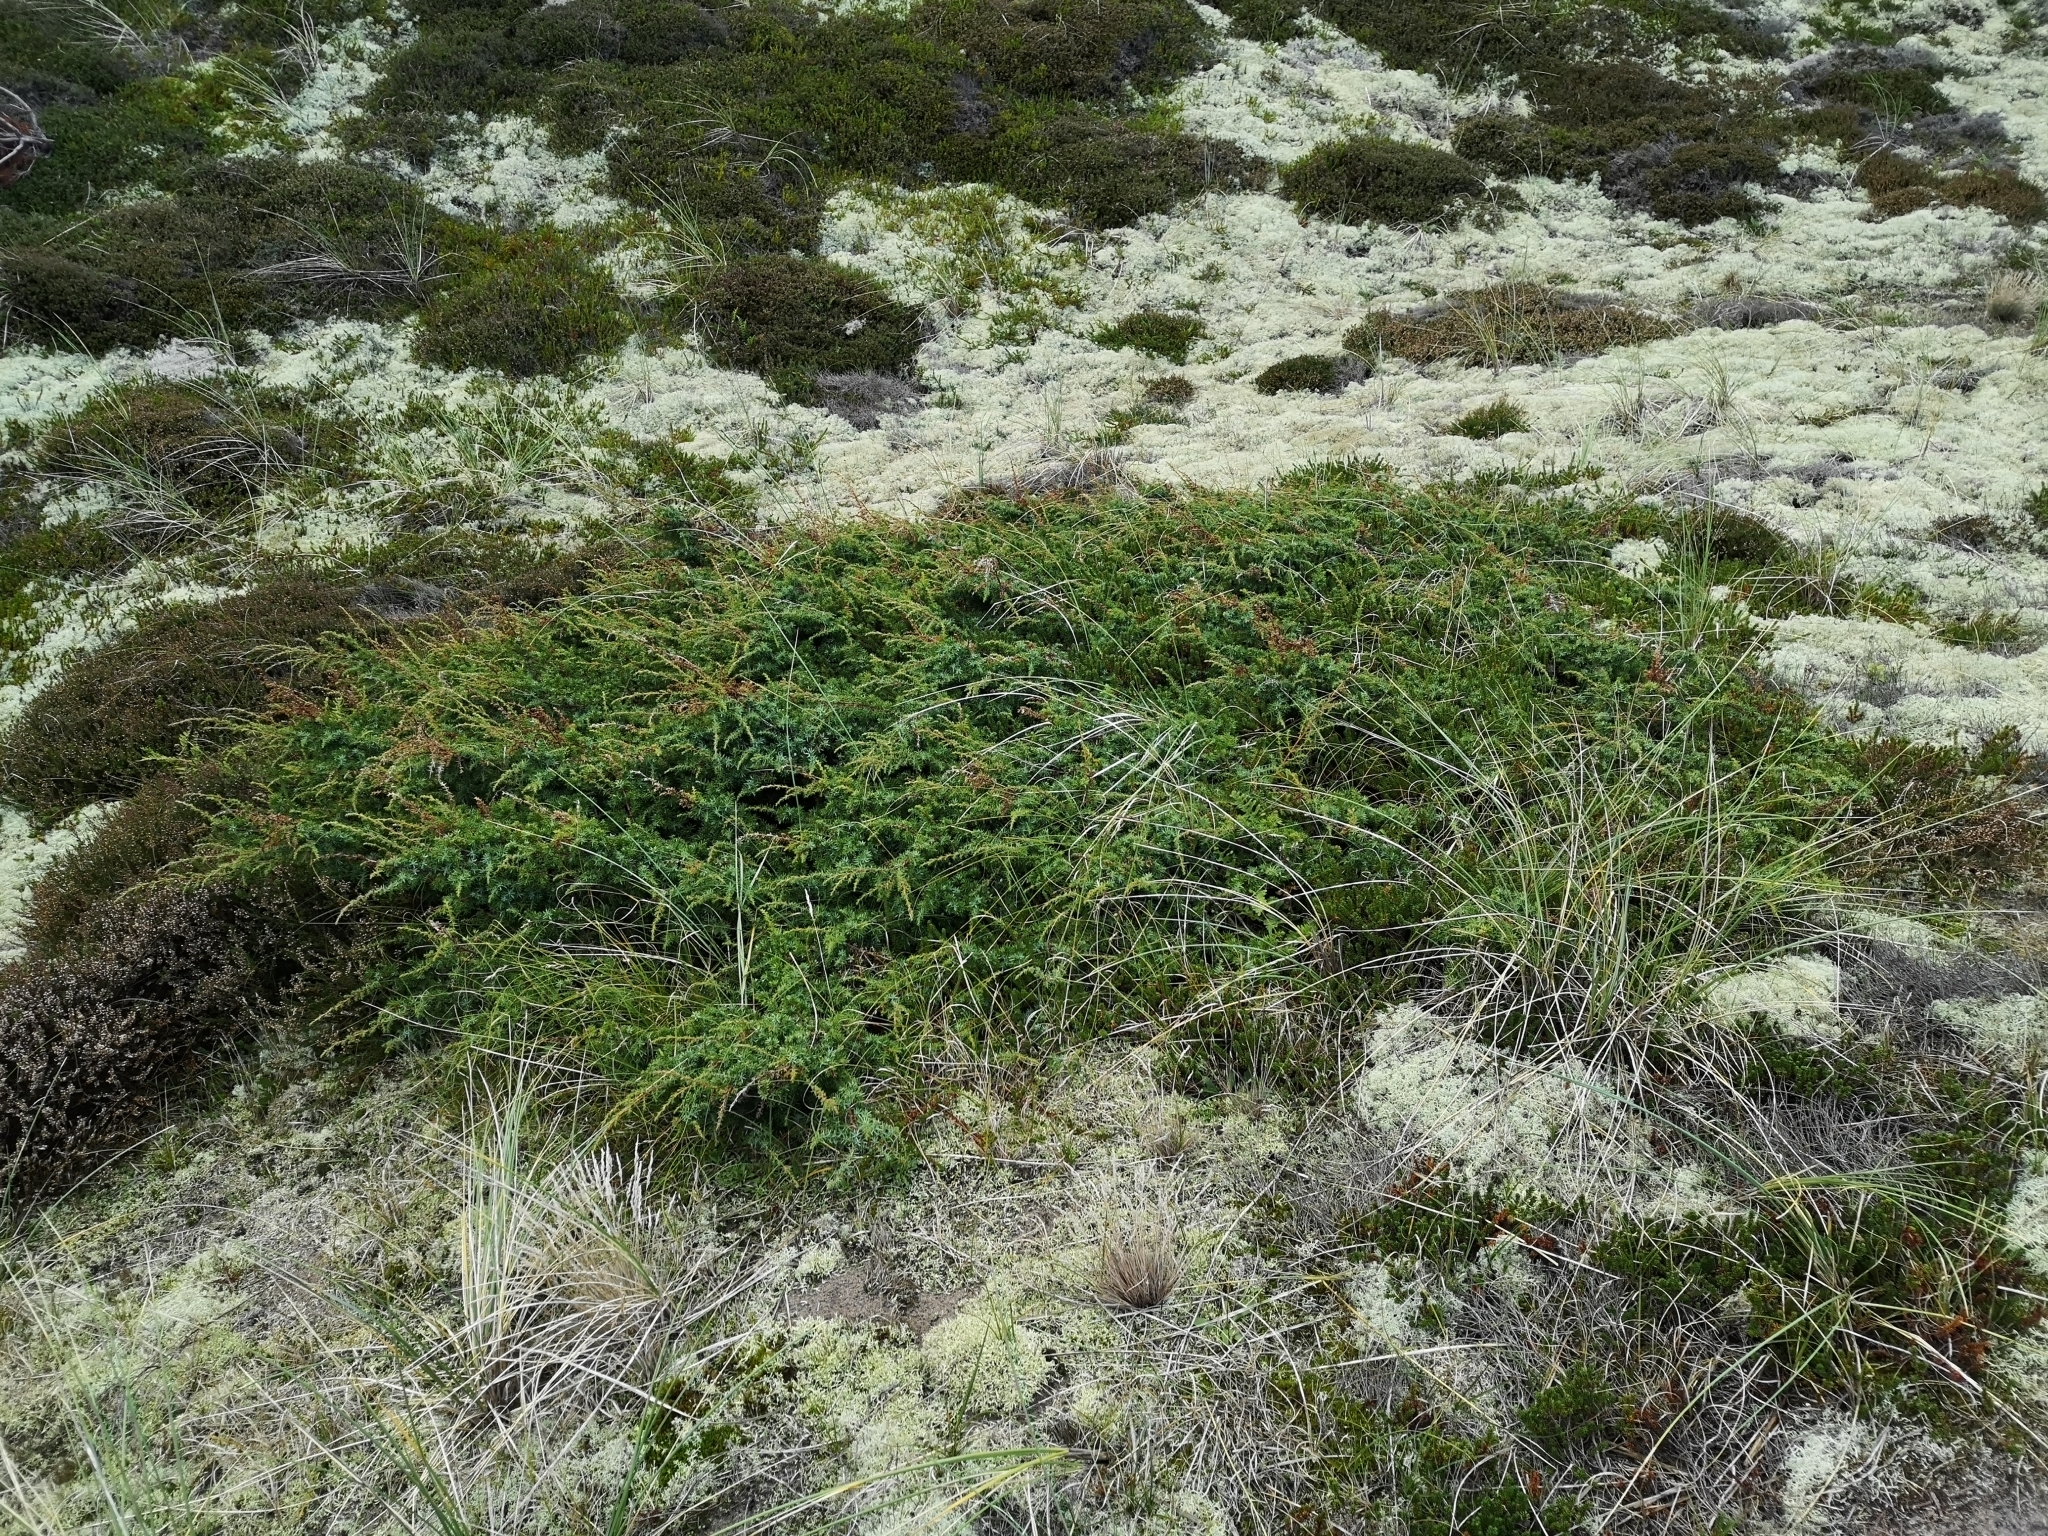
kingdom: Plantae
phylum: Tracheophyta
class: Pinopsida
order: Pinales
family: Cupressaceae
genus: Juniperus
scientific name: Juniperus communis
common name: Common juniper
